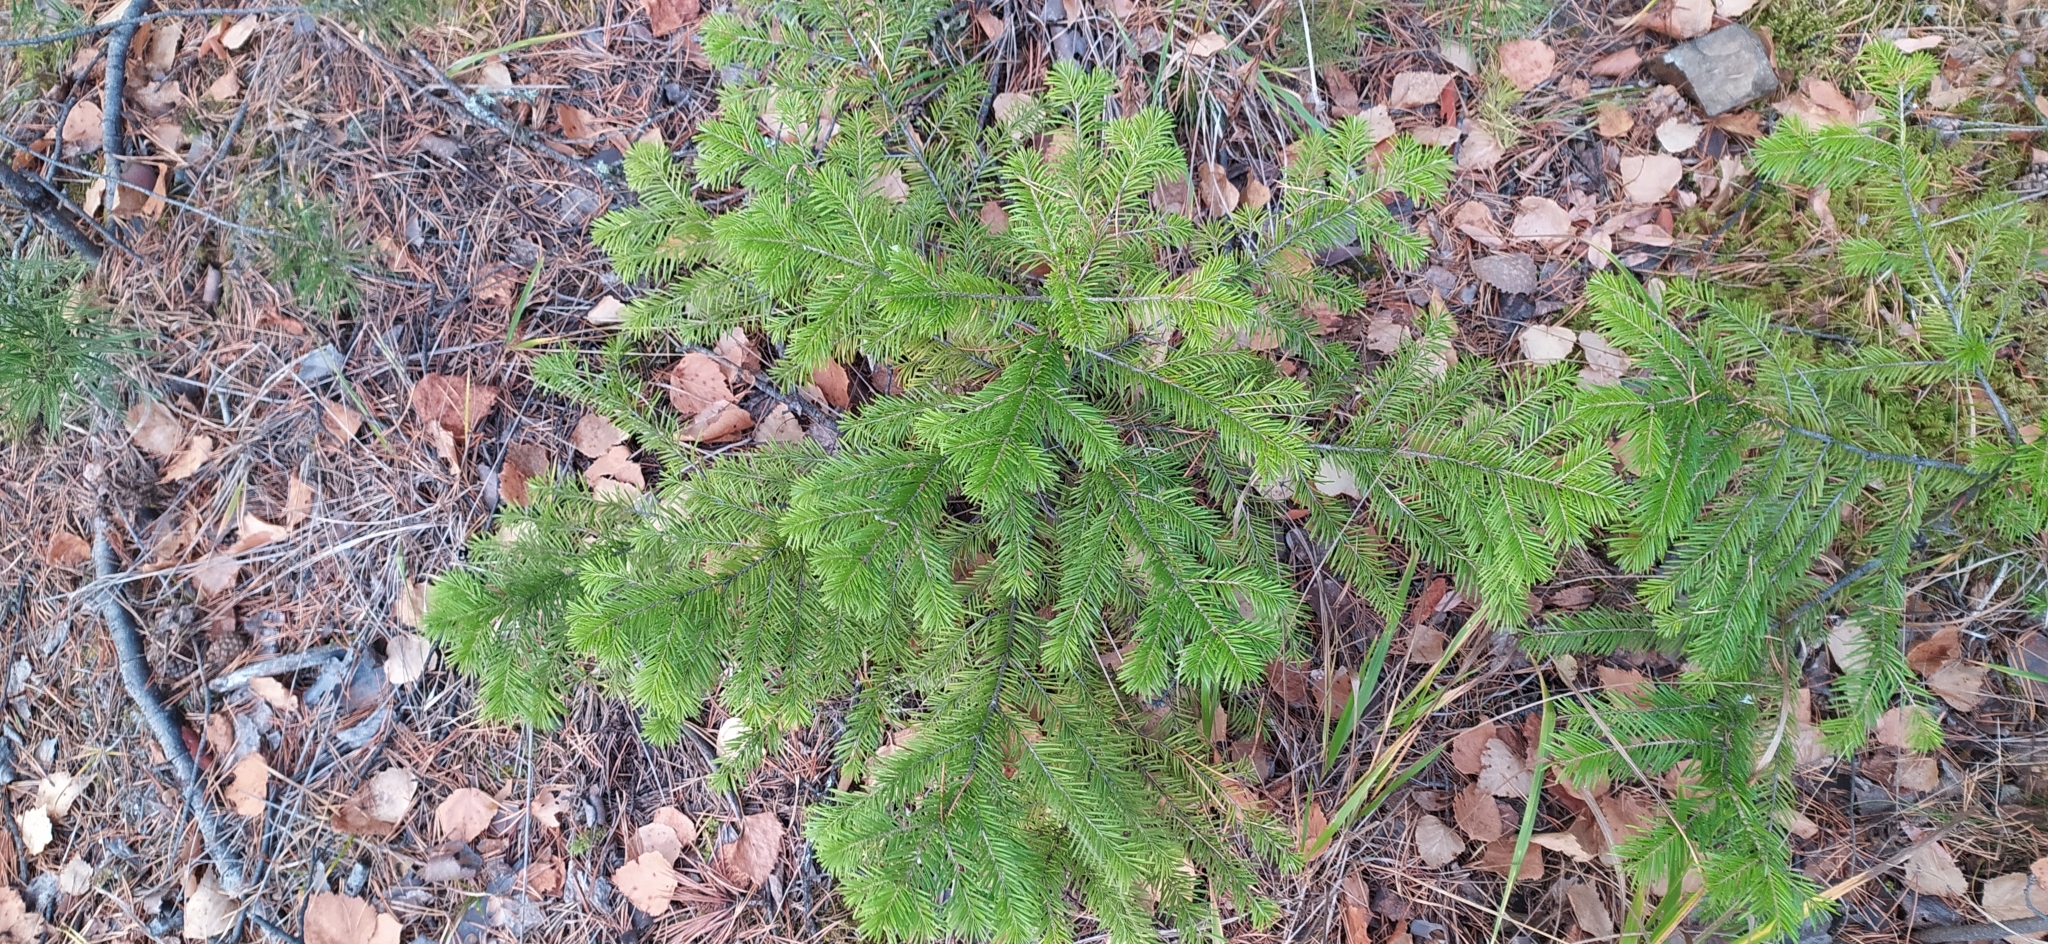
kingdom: Plantae
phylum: Tracheophyta
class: Pinopsida
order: Pinales
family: Pinaceae
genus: Abies
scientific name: Abies sibirica
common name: Siberian fir
